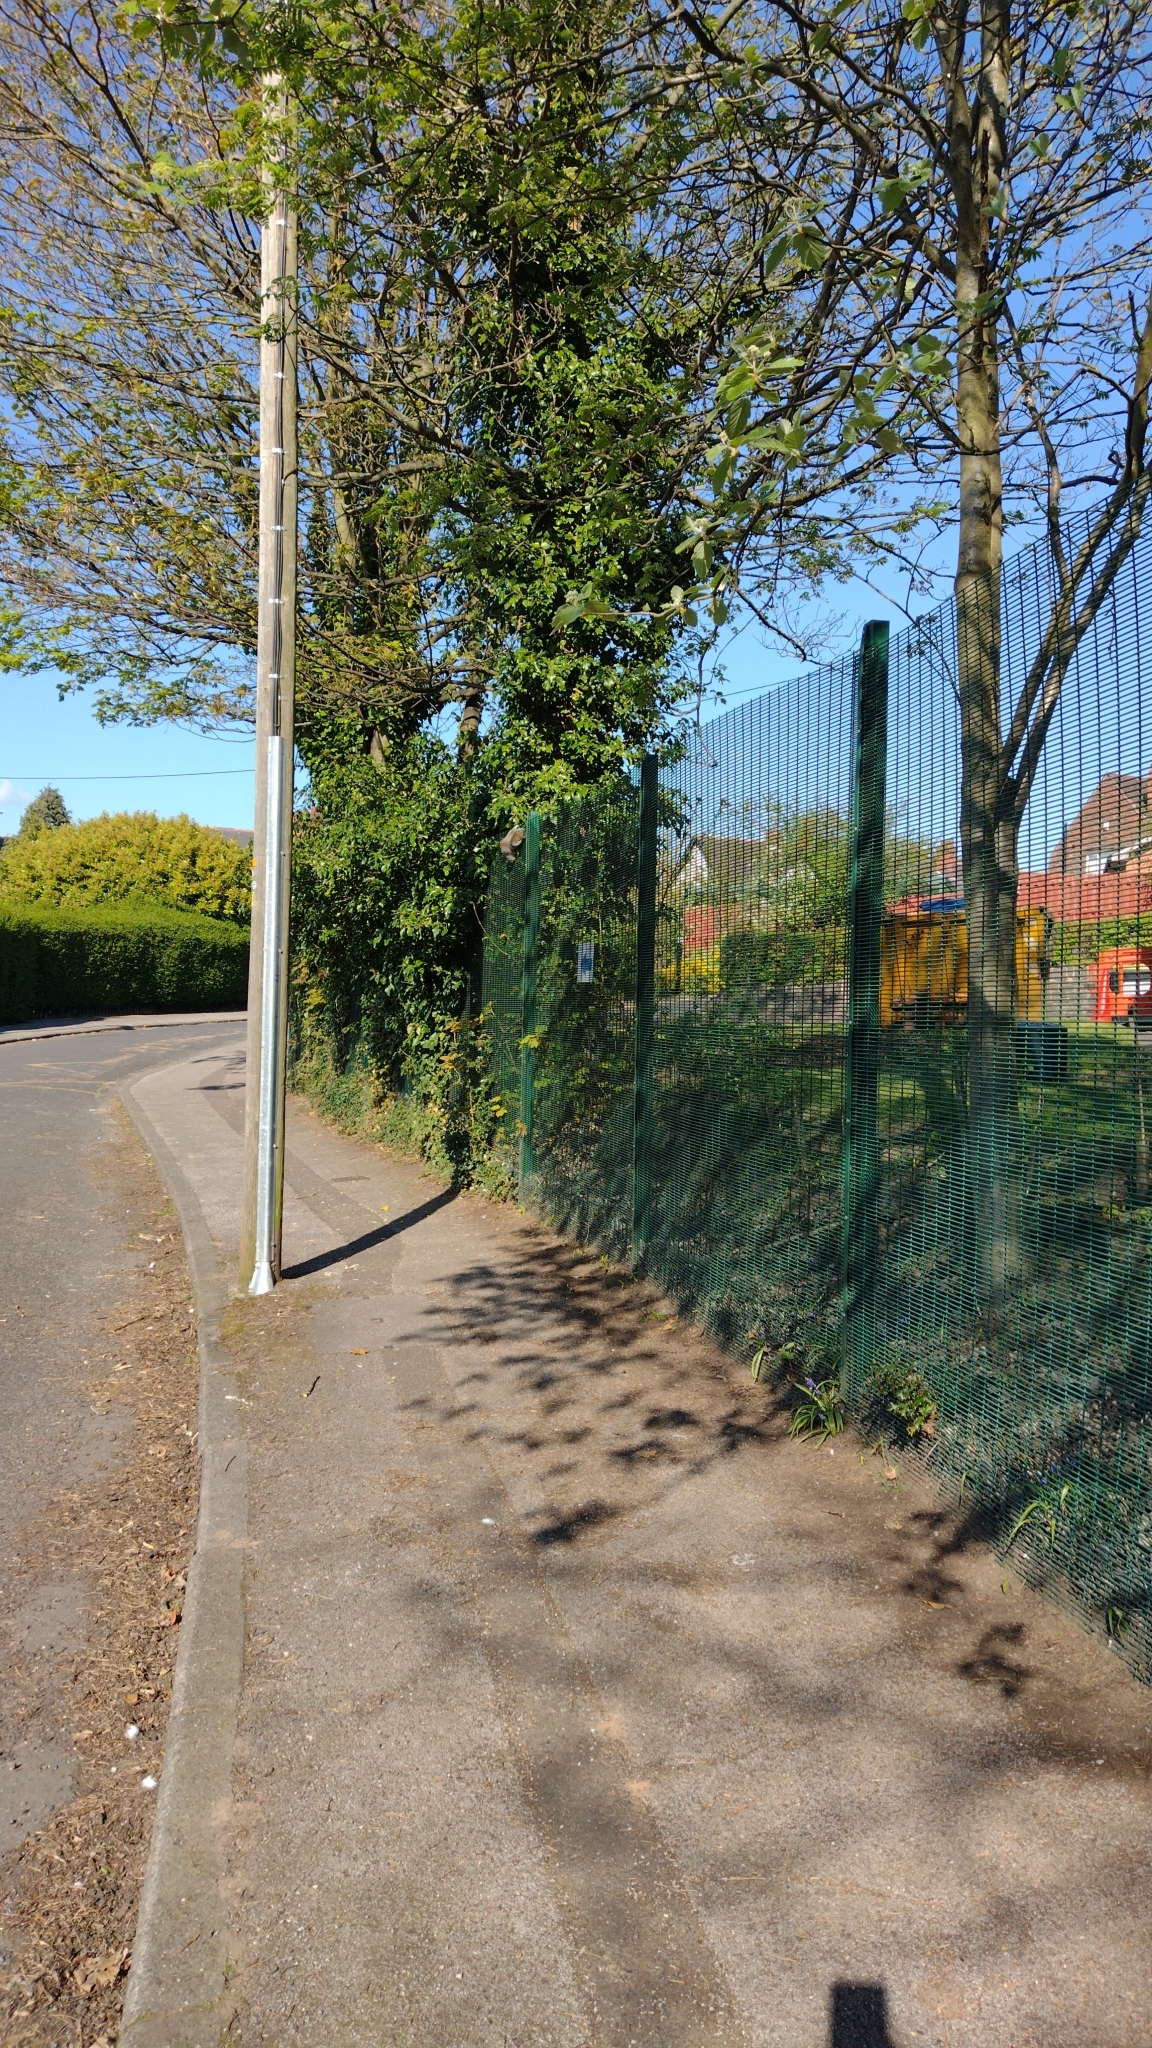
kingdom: Animalia
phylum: Chordata
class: Mammalia
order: Rodentia
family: Sciuridae
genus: Sciurus
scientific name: Sciurus carolinensis
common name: Eastern gray squirrel
